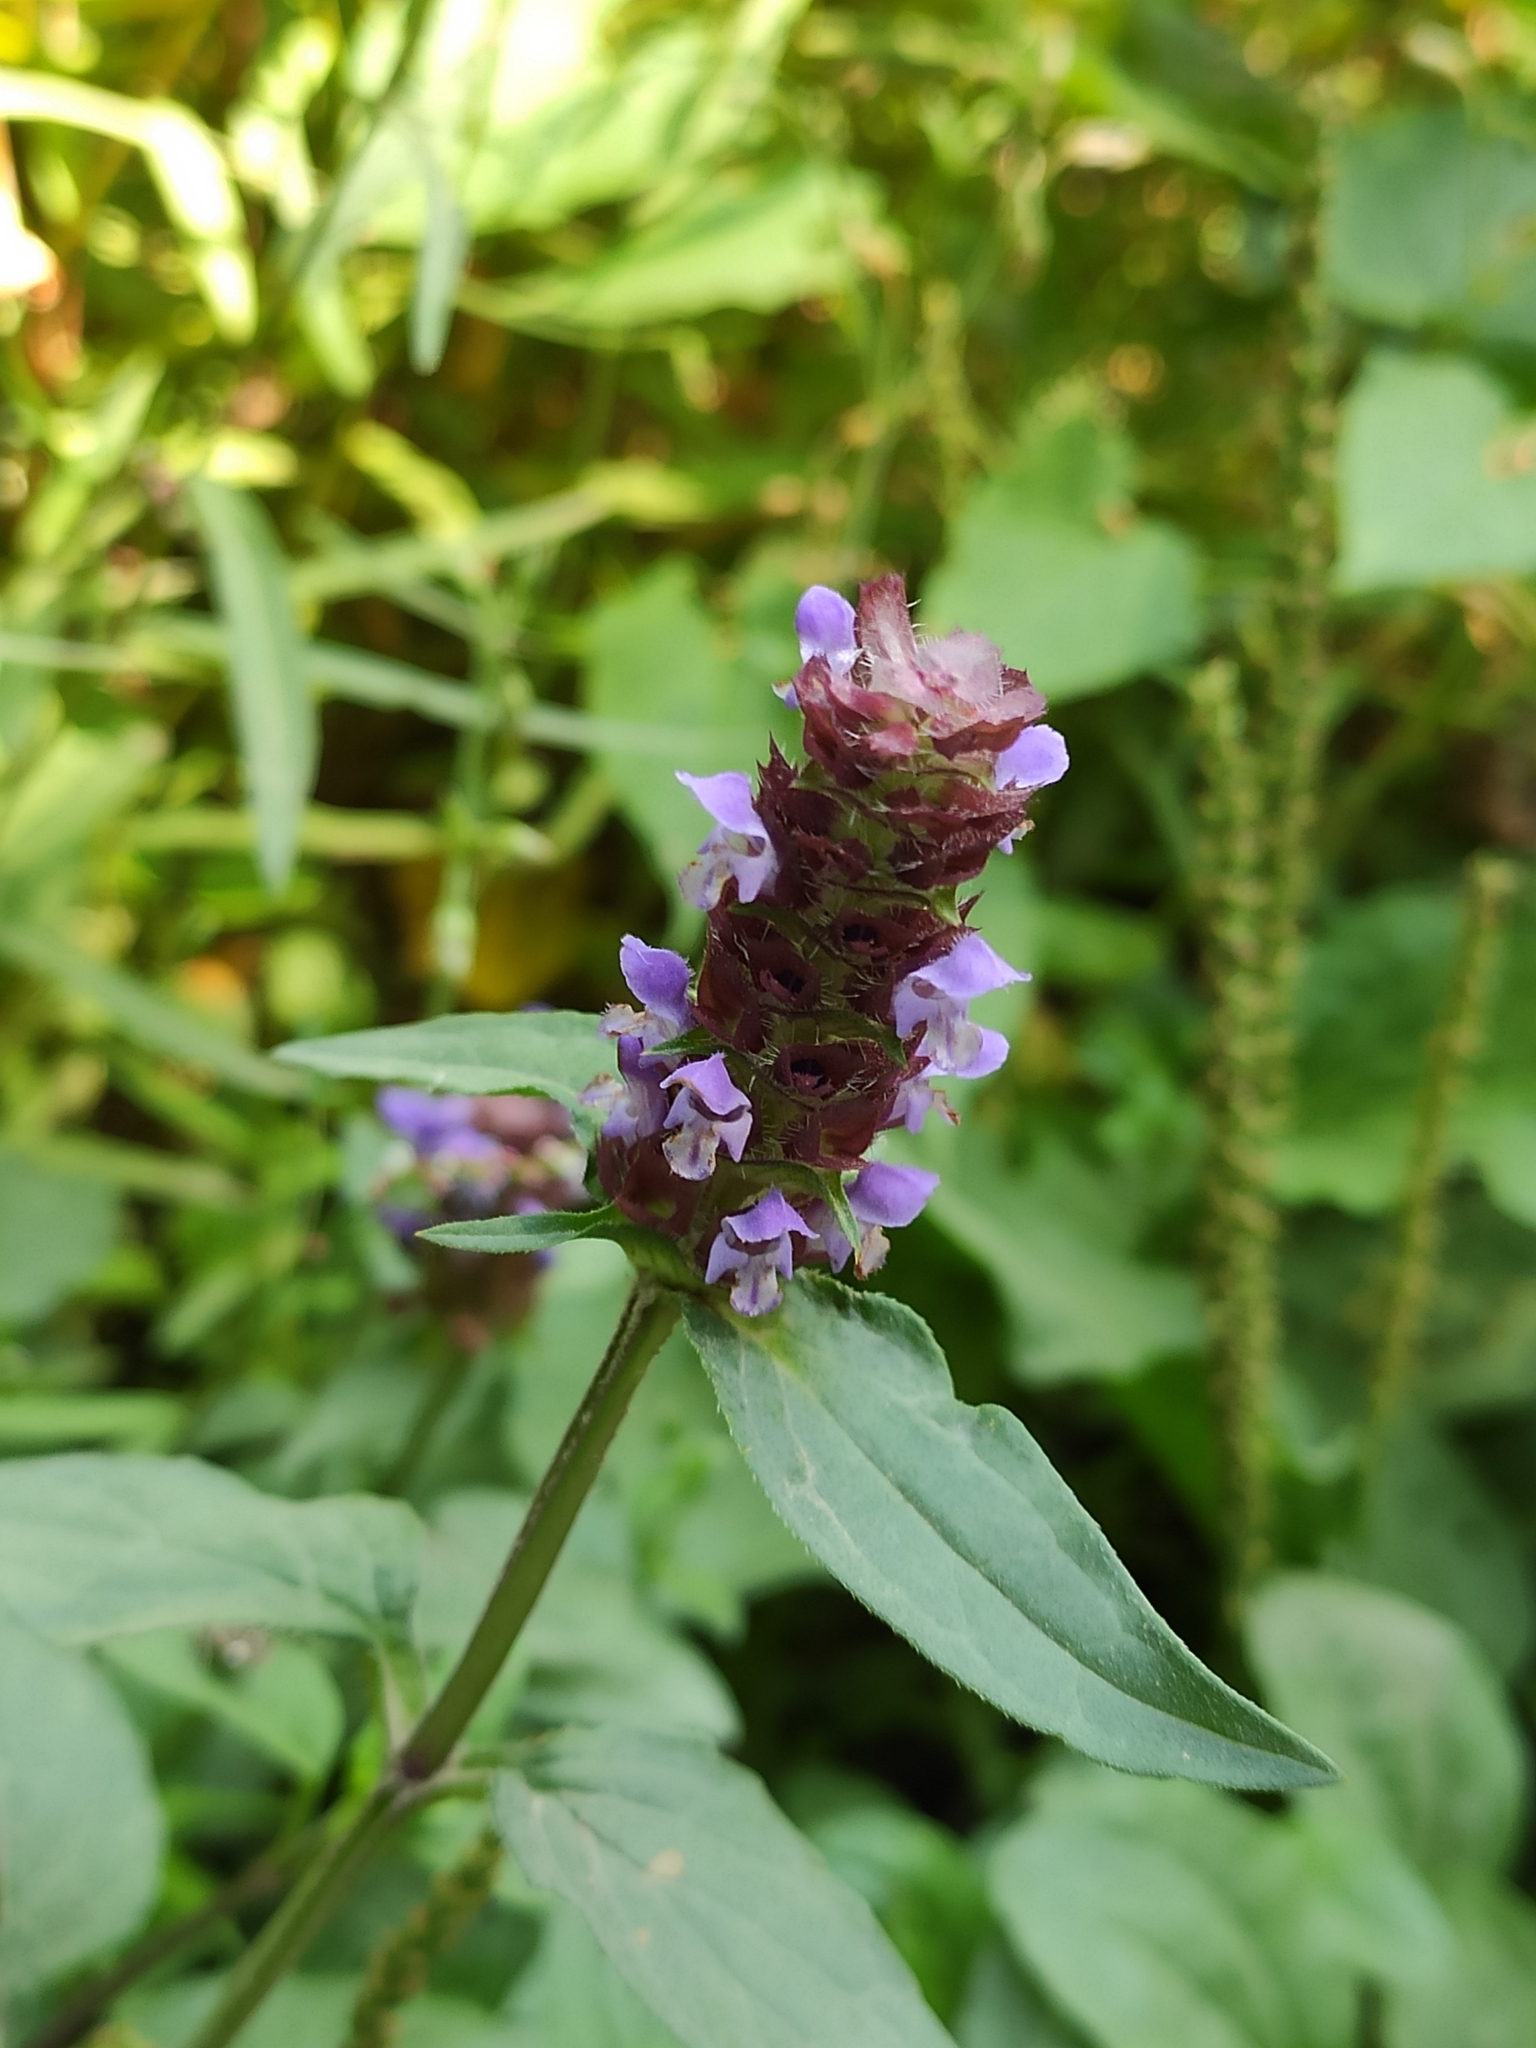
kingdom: Plantae
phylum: Tracheophyta
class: Magnoliopsida
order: Lamiales
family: Lamiaceae
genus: Prunella
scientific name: Prunella vulgaris
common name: Heal-all
